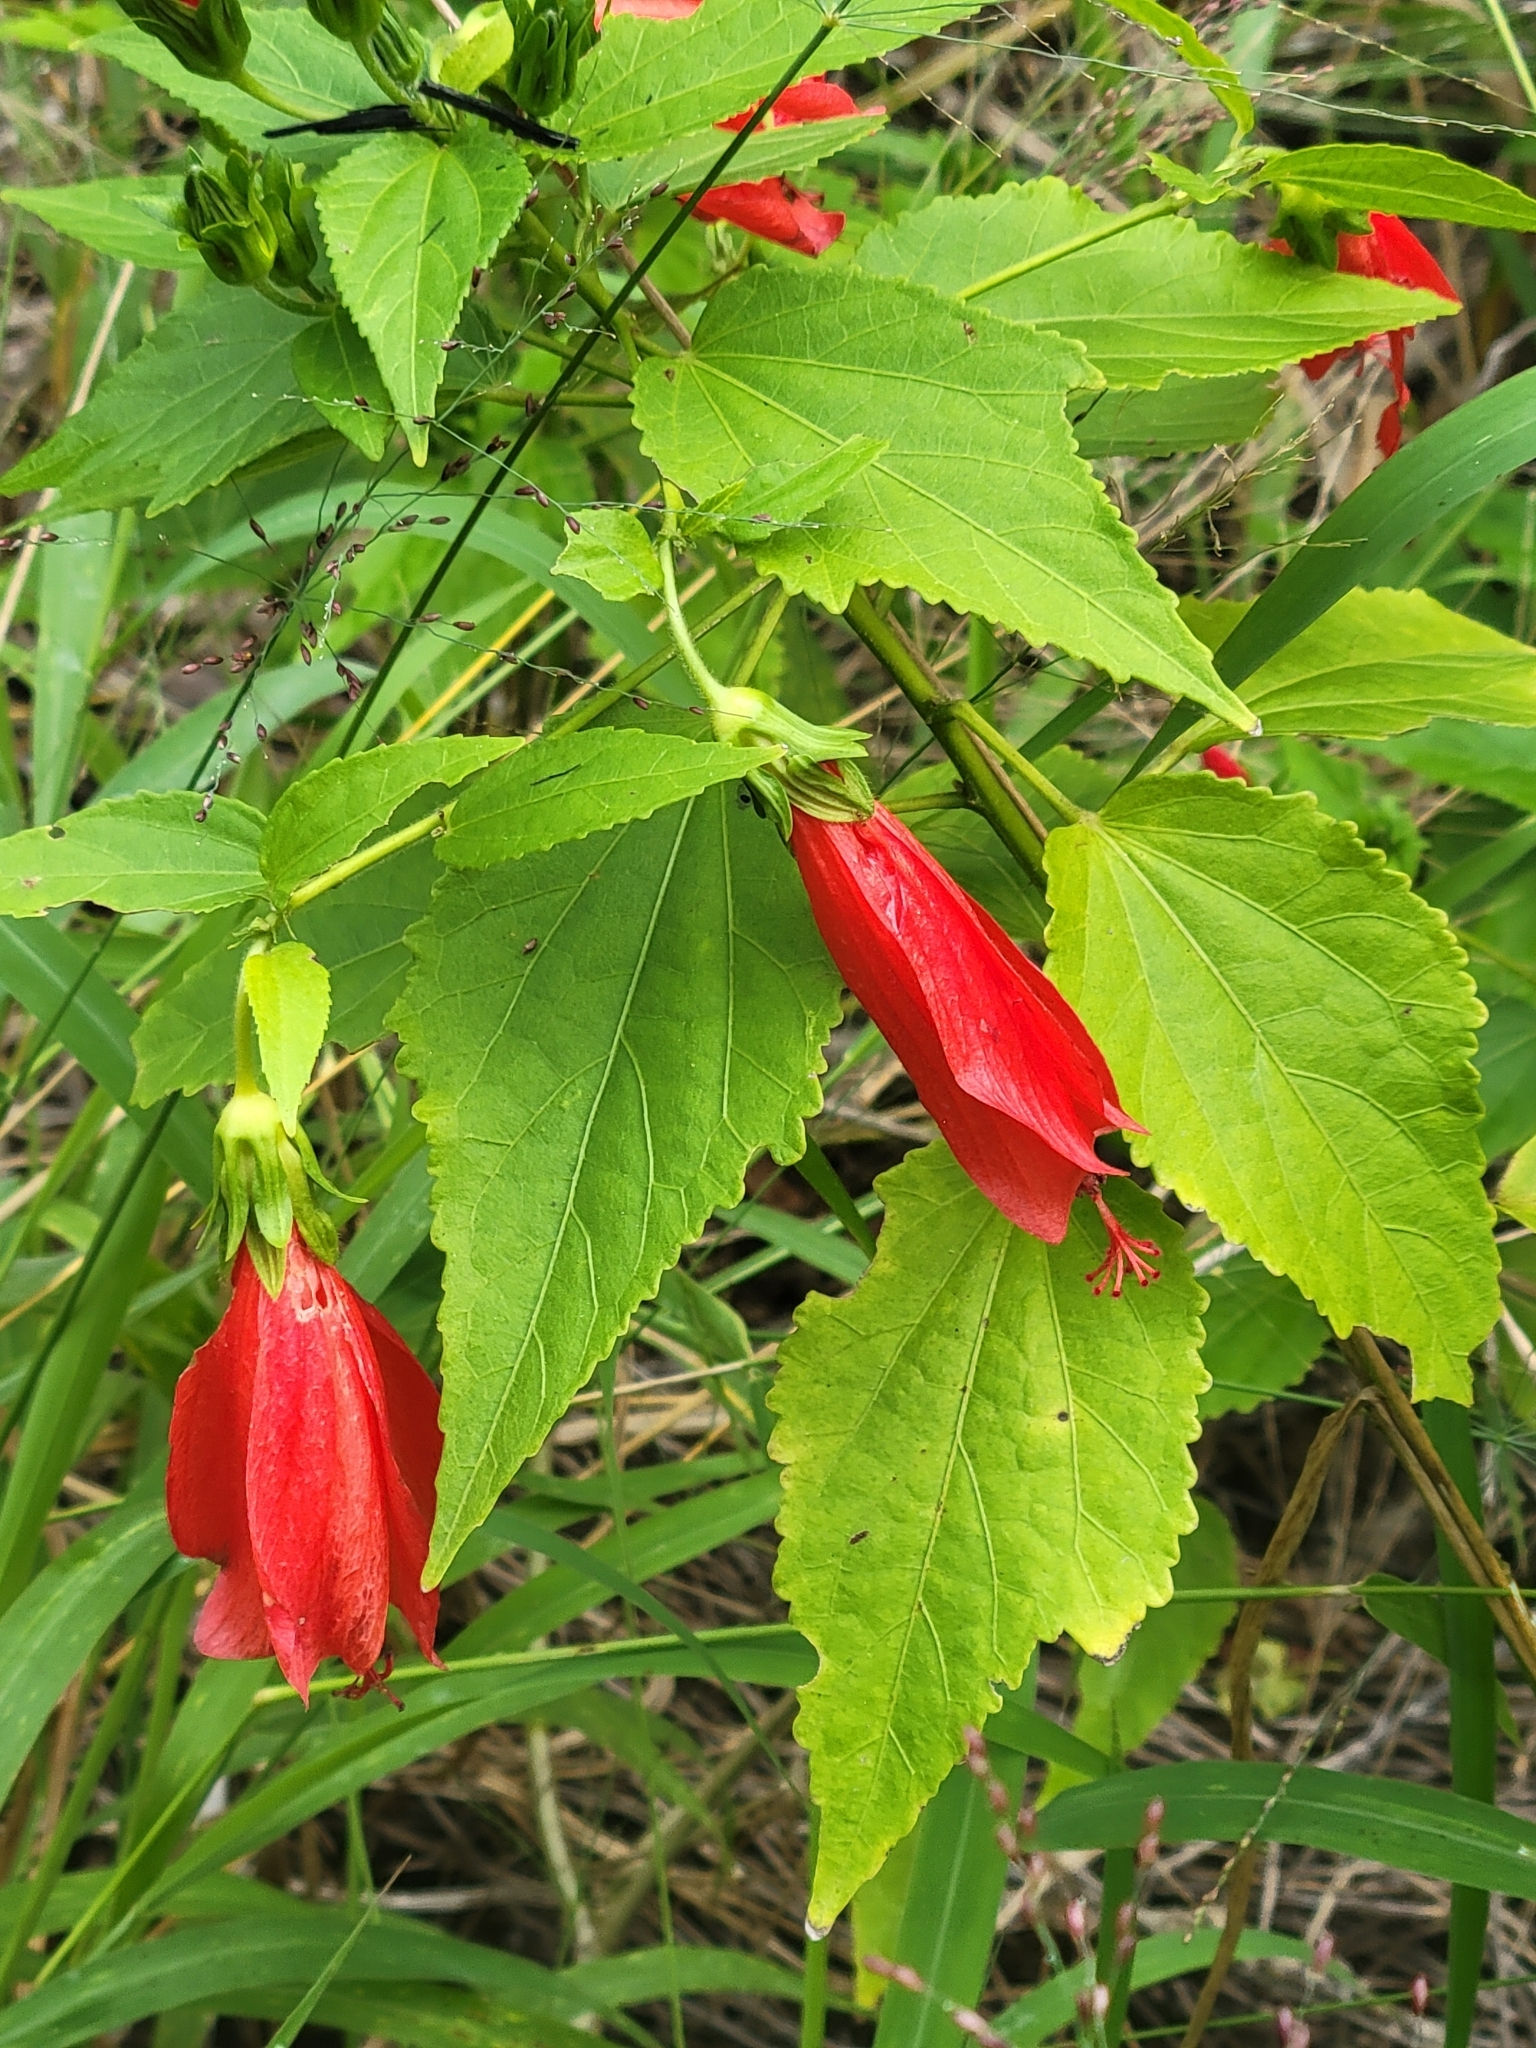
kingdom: Plantae
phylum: Tracheophyta
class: Magnoliopsida
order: Malvales
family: Malvaceae
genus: Malvaviscus
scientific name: Malvaviscus penduliflorus
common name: Mazapan
